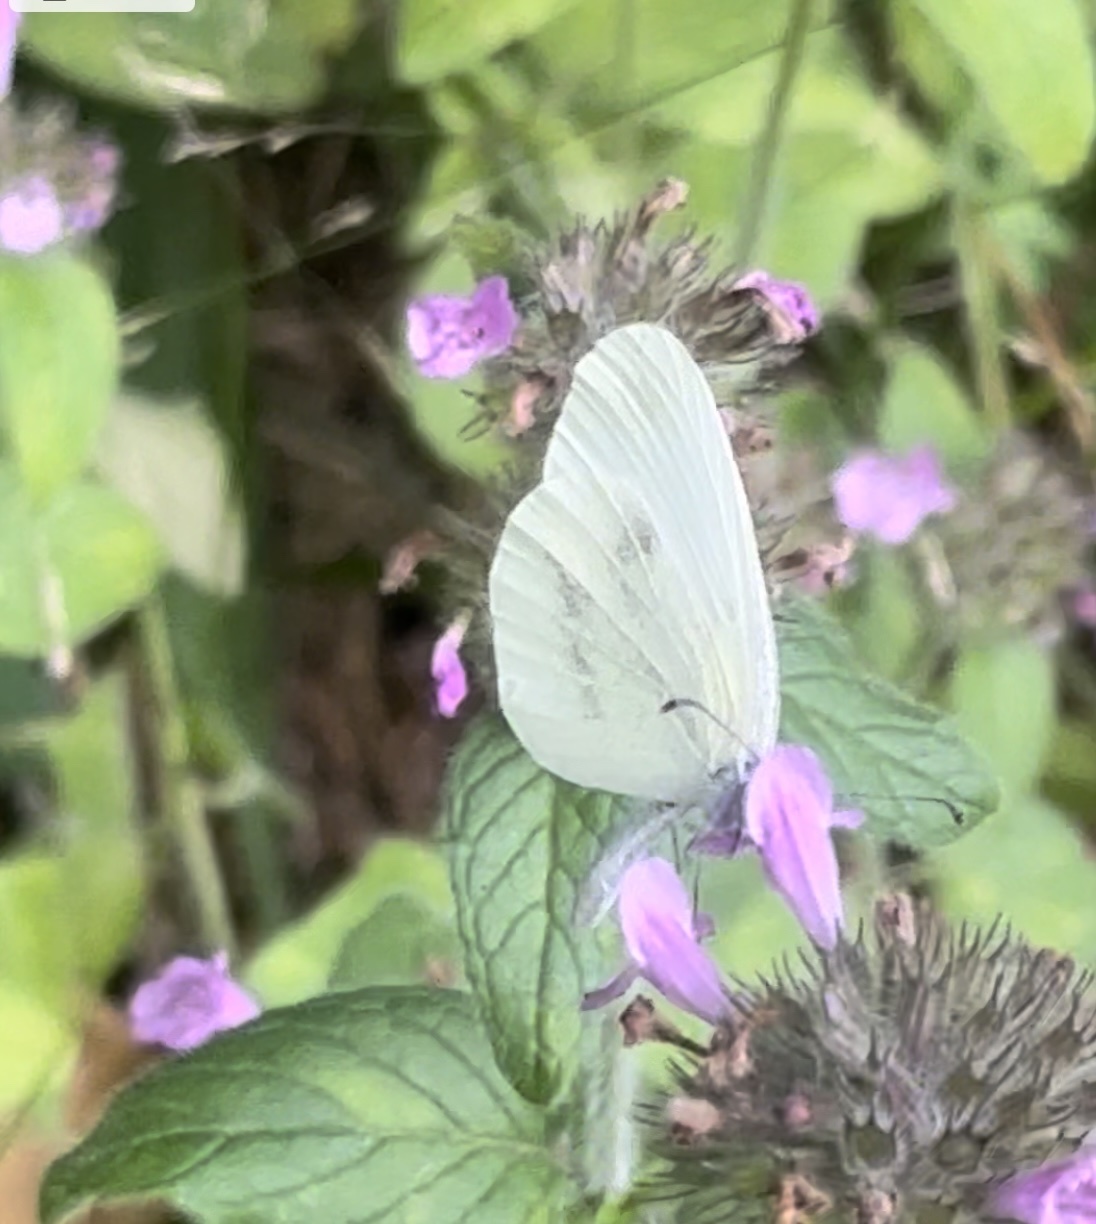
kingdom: Animalia
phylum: Arthropoda
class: Insecta
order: Lepidoptera
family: Pieridae
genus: Leptidea
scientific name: Leptidea
